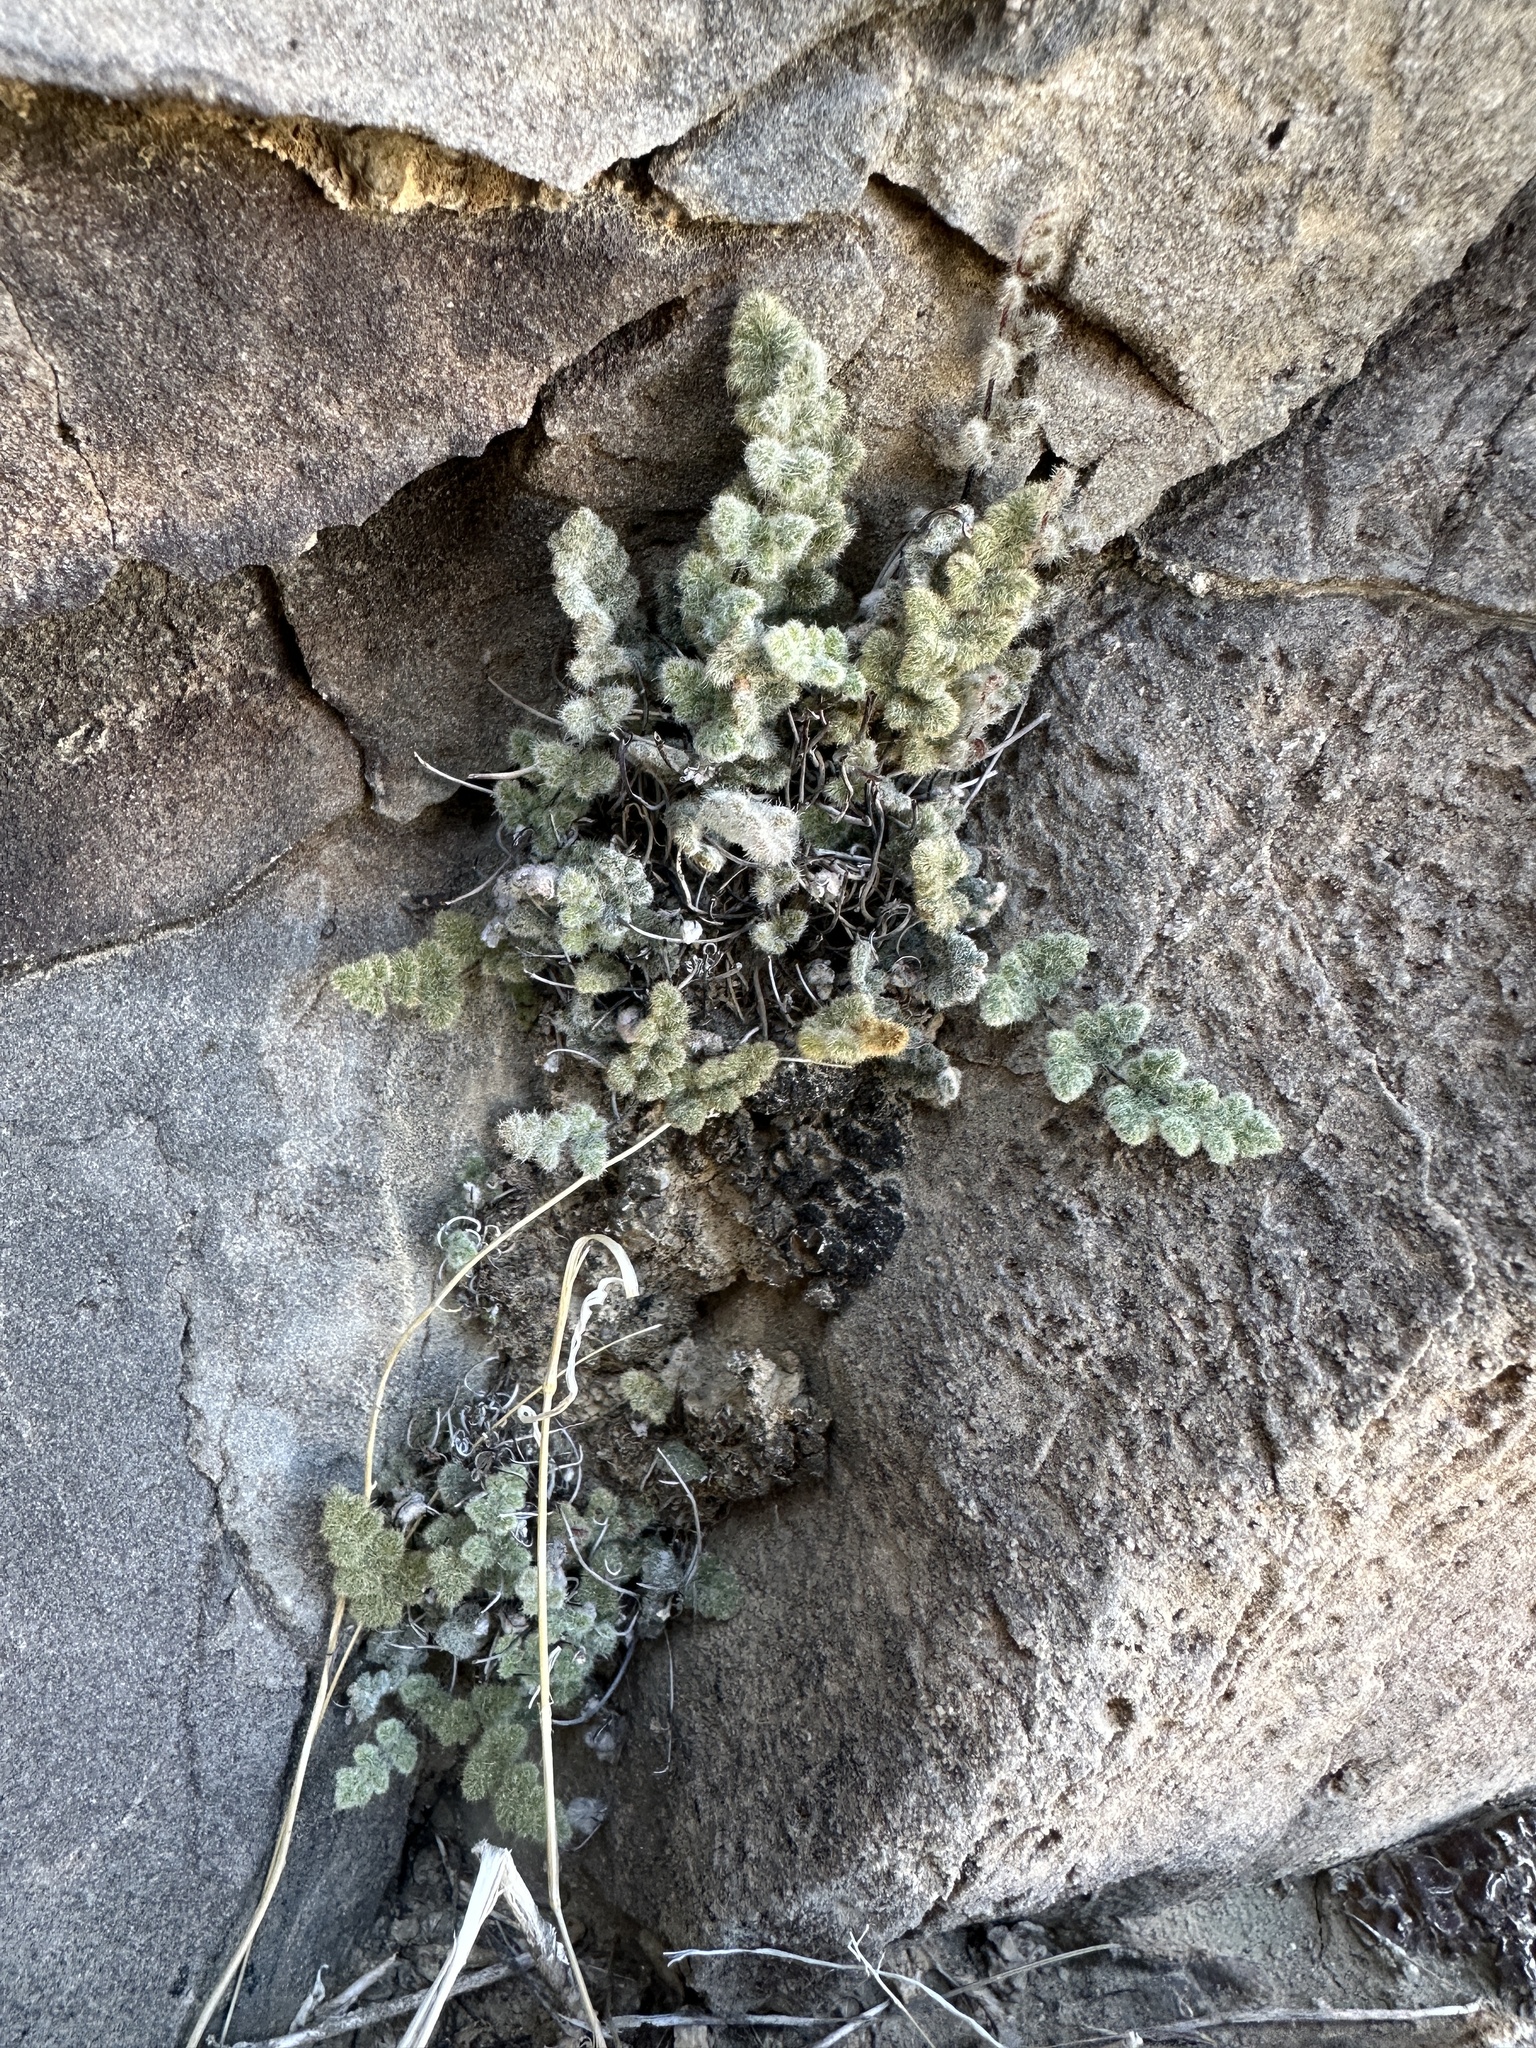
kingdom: Plantae
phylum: Tracheophyta
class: Polypodiopsida
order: Polypodiales
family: Pteridaceae
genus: Myriopteris
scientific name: Myriopteris parryi
